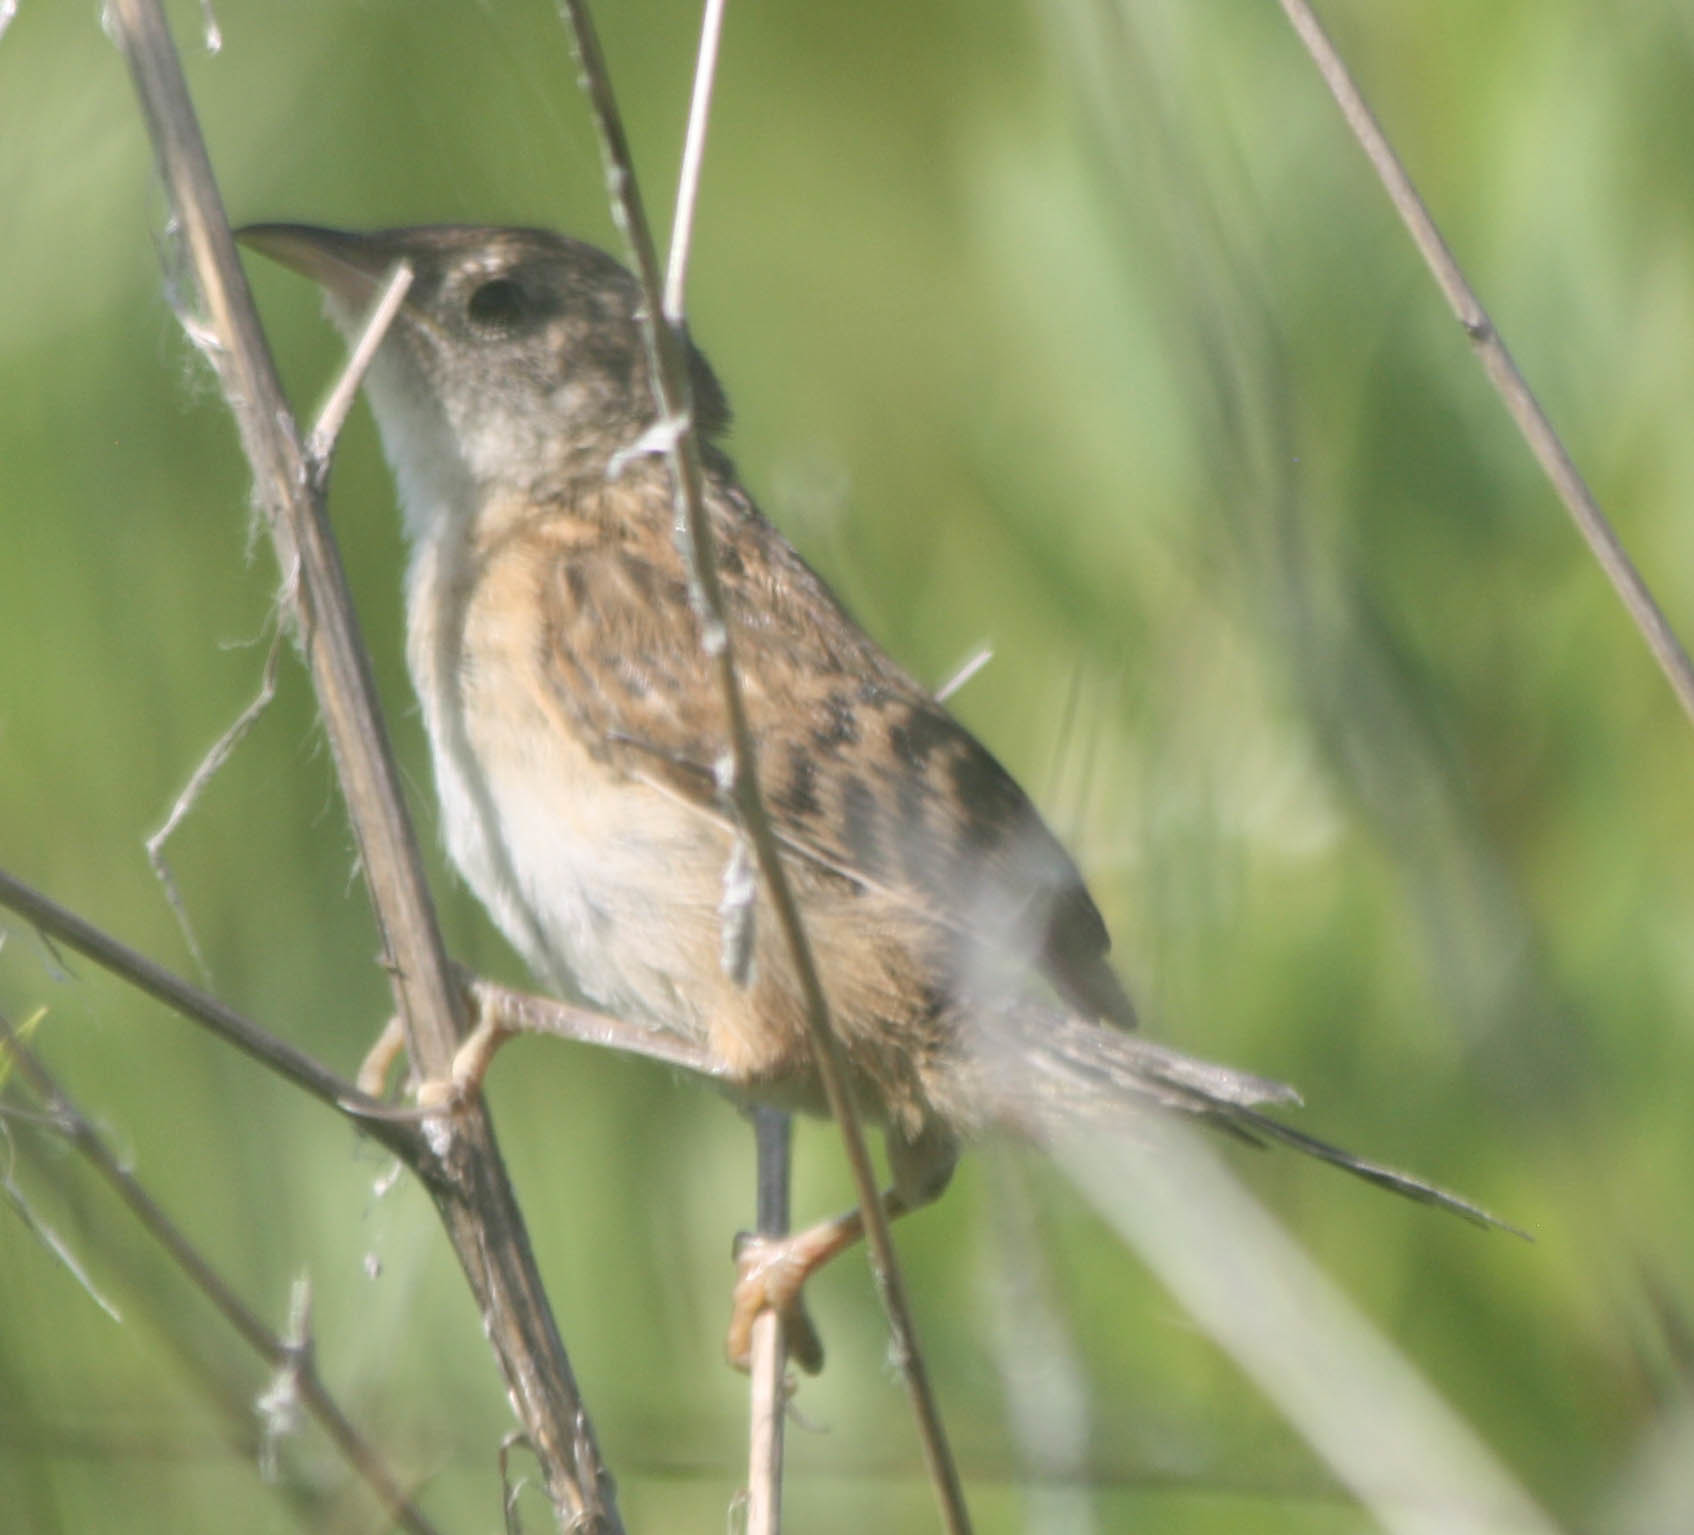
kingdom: Animalia
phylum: Chordata
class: Aves
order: Passeriformes
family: Troglodytidae
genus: Cistothorus
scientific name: Cistothorus platensis
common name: Sedge wren
